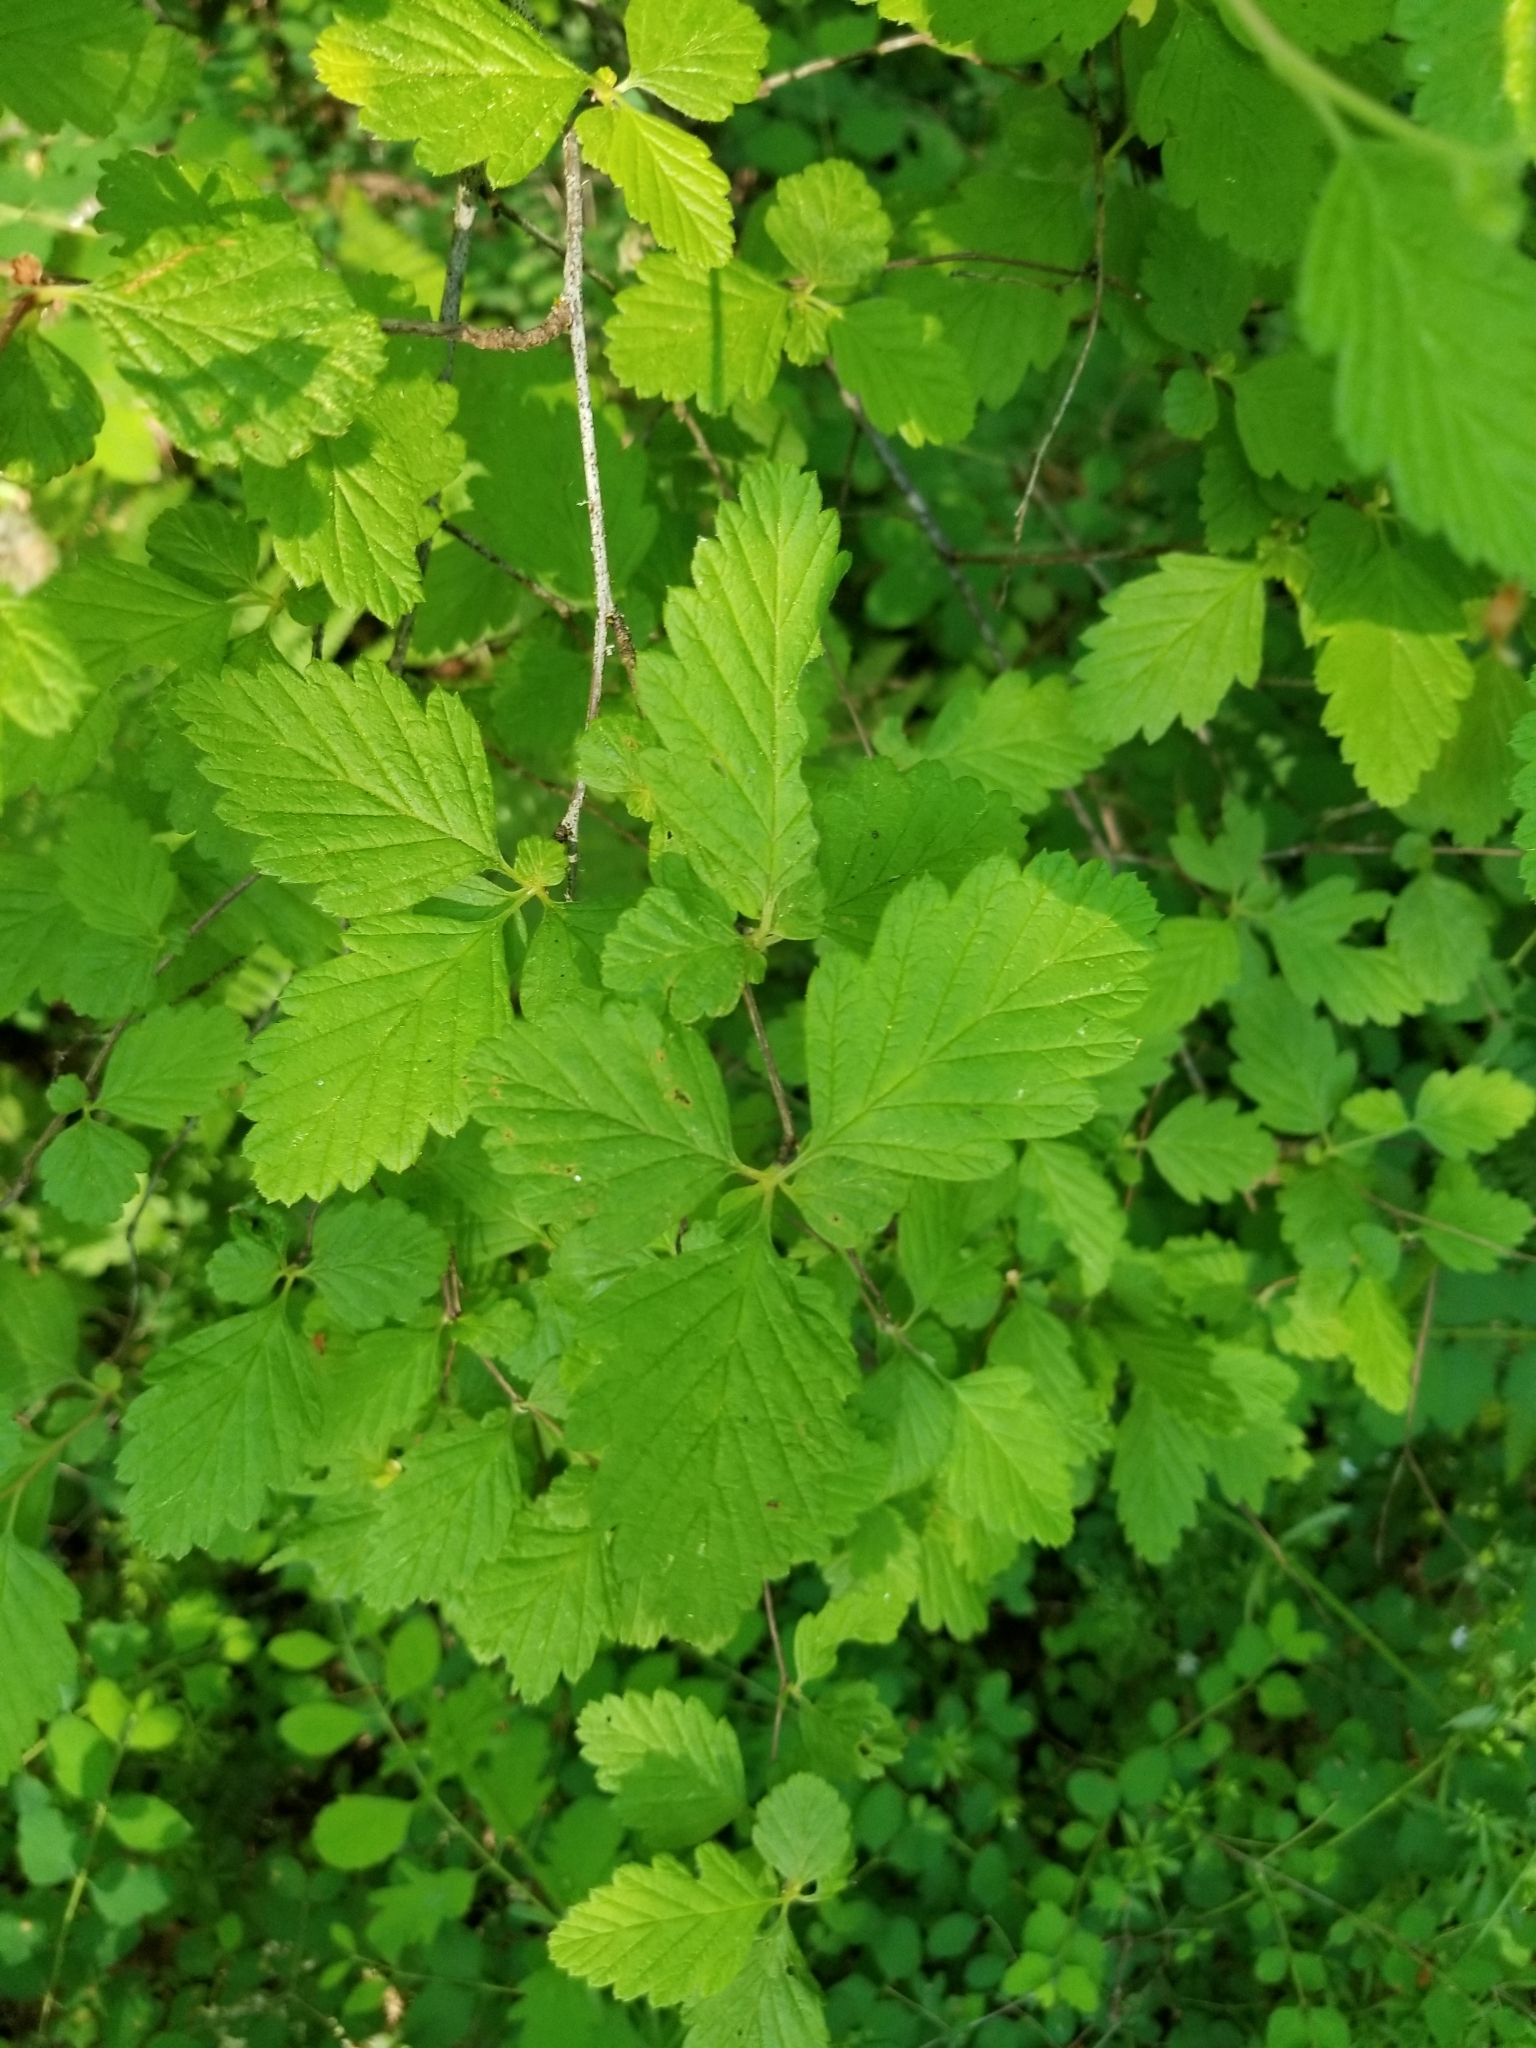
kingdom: Plantae
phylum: Tracheophyta
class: Magnoliopsida
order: Rosales
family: Rosaceae
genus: Holodiscus
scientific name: Holodiscus discolor
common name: Oceanspray
